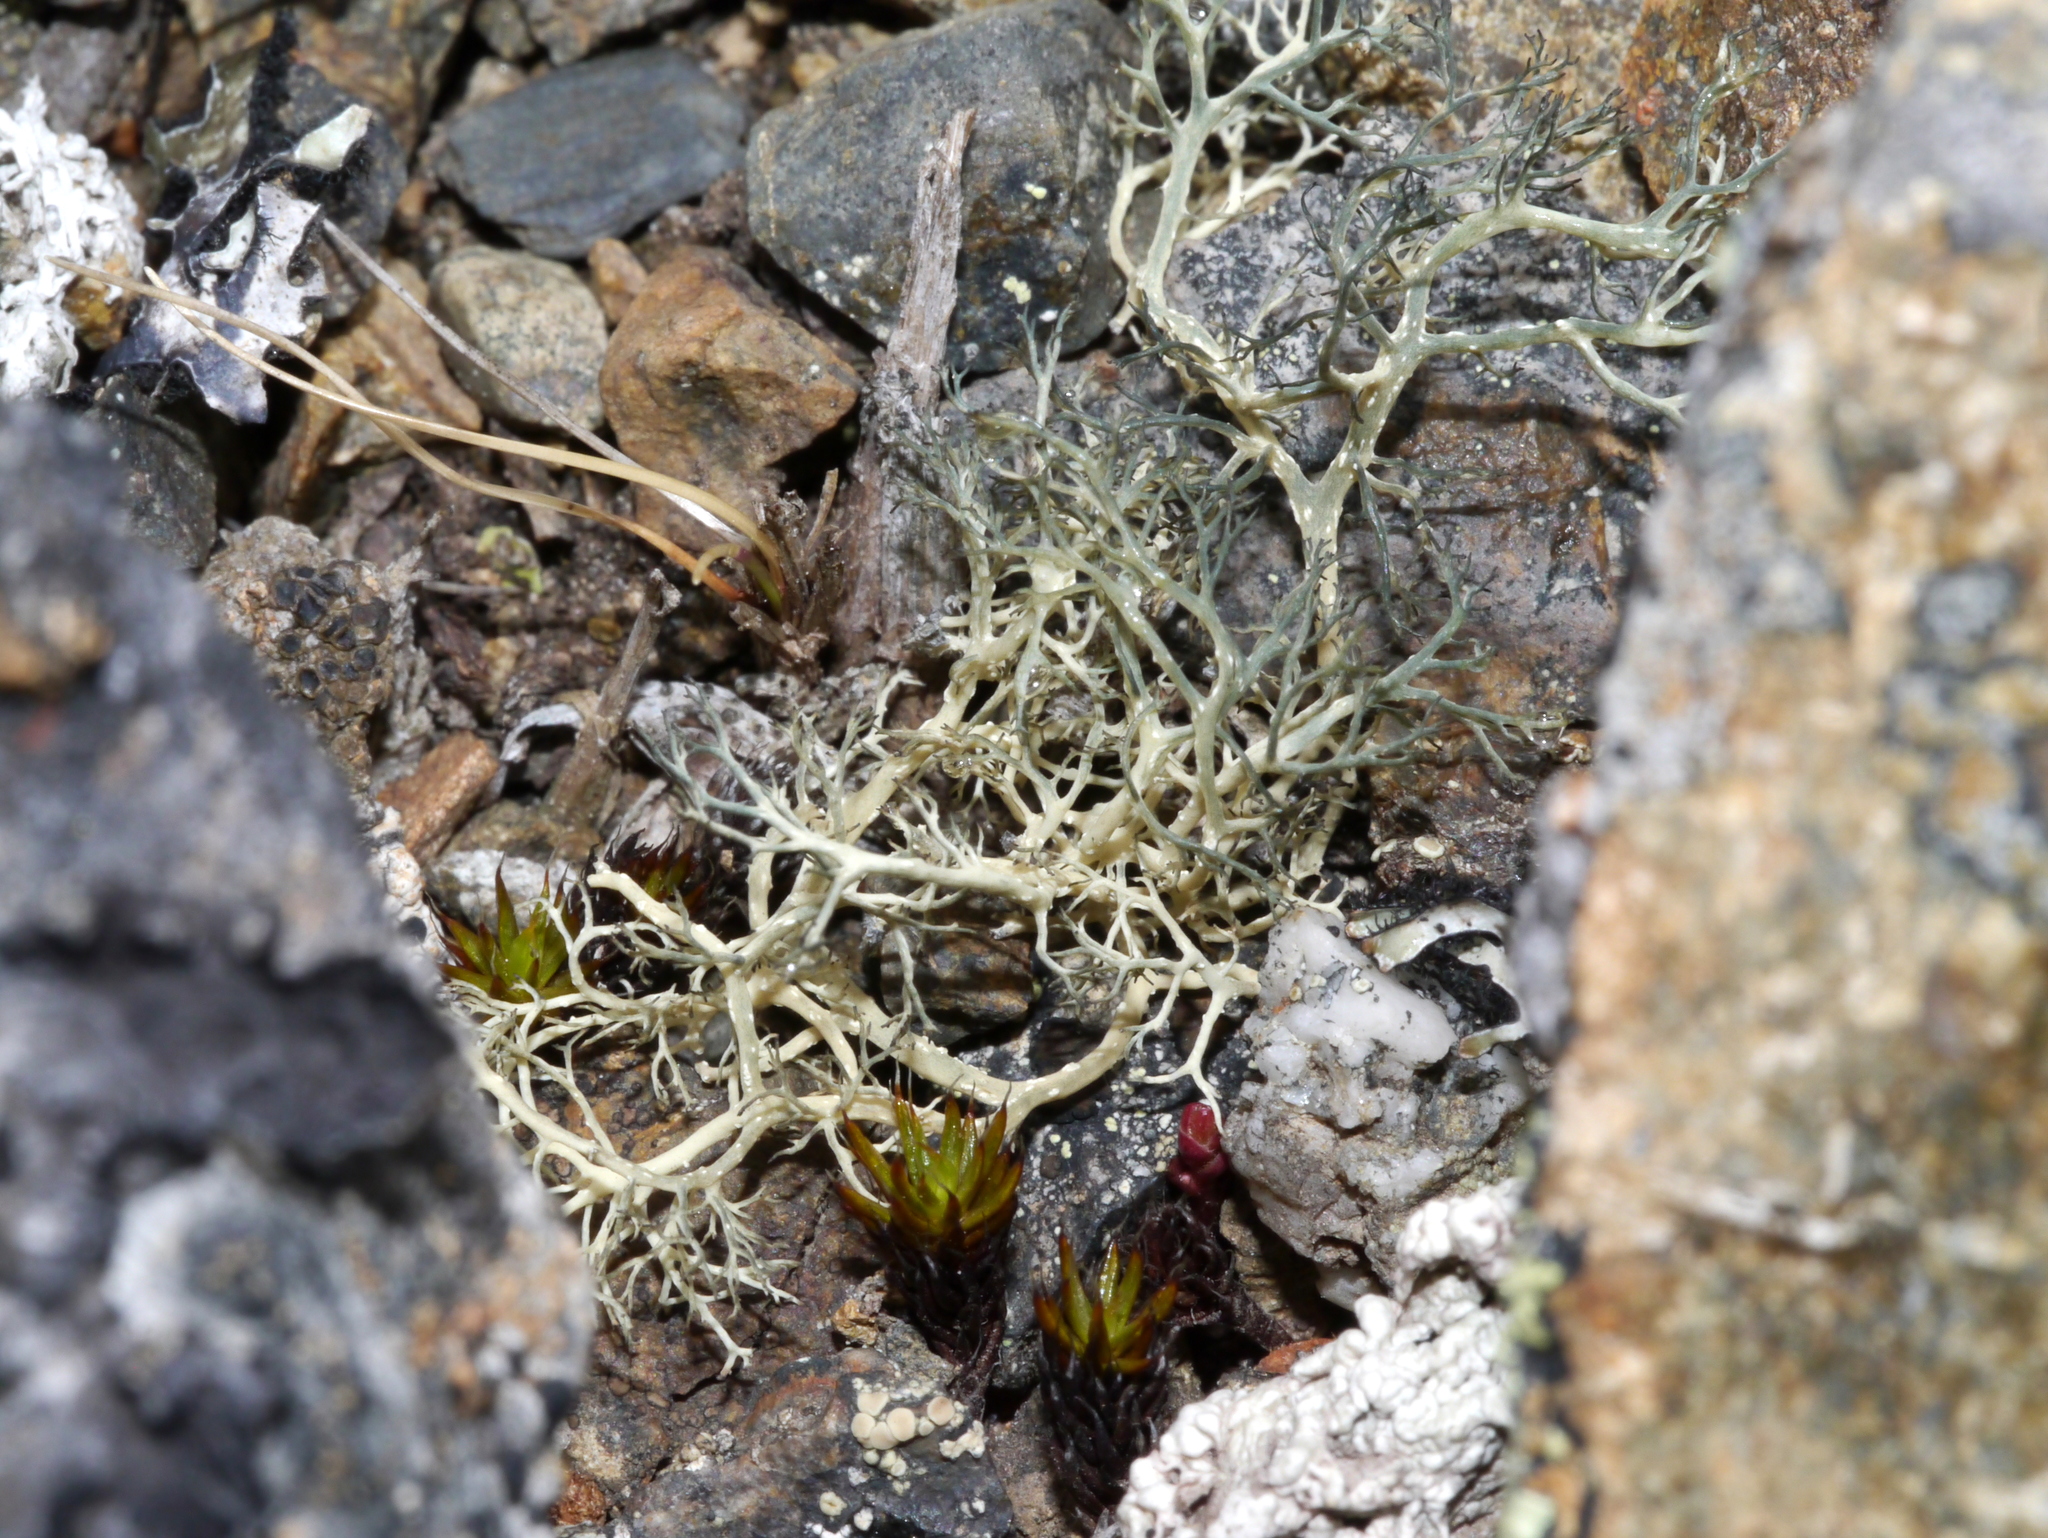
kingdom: Fungi
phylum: Ascomycota
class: Lecanoromycetes
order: Lecanorales
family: Parmeliaceae
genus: Alectoria
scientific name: Alectoria ochroleuca
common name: Alpine sulphur-tresses
